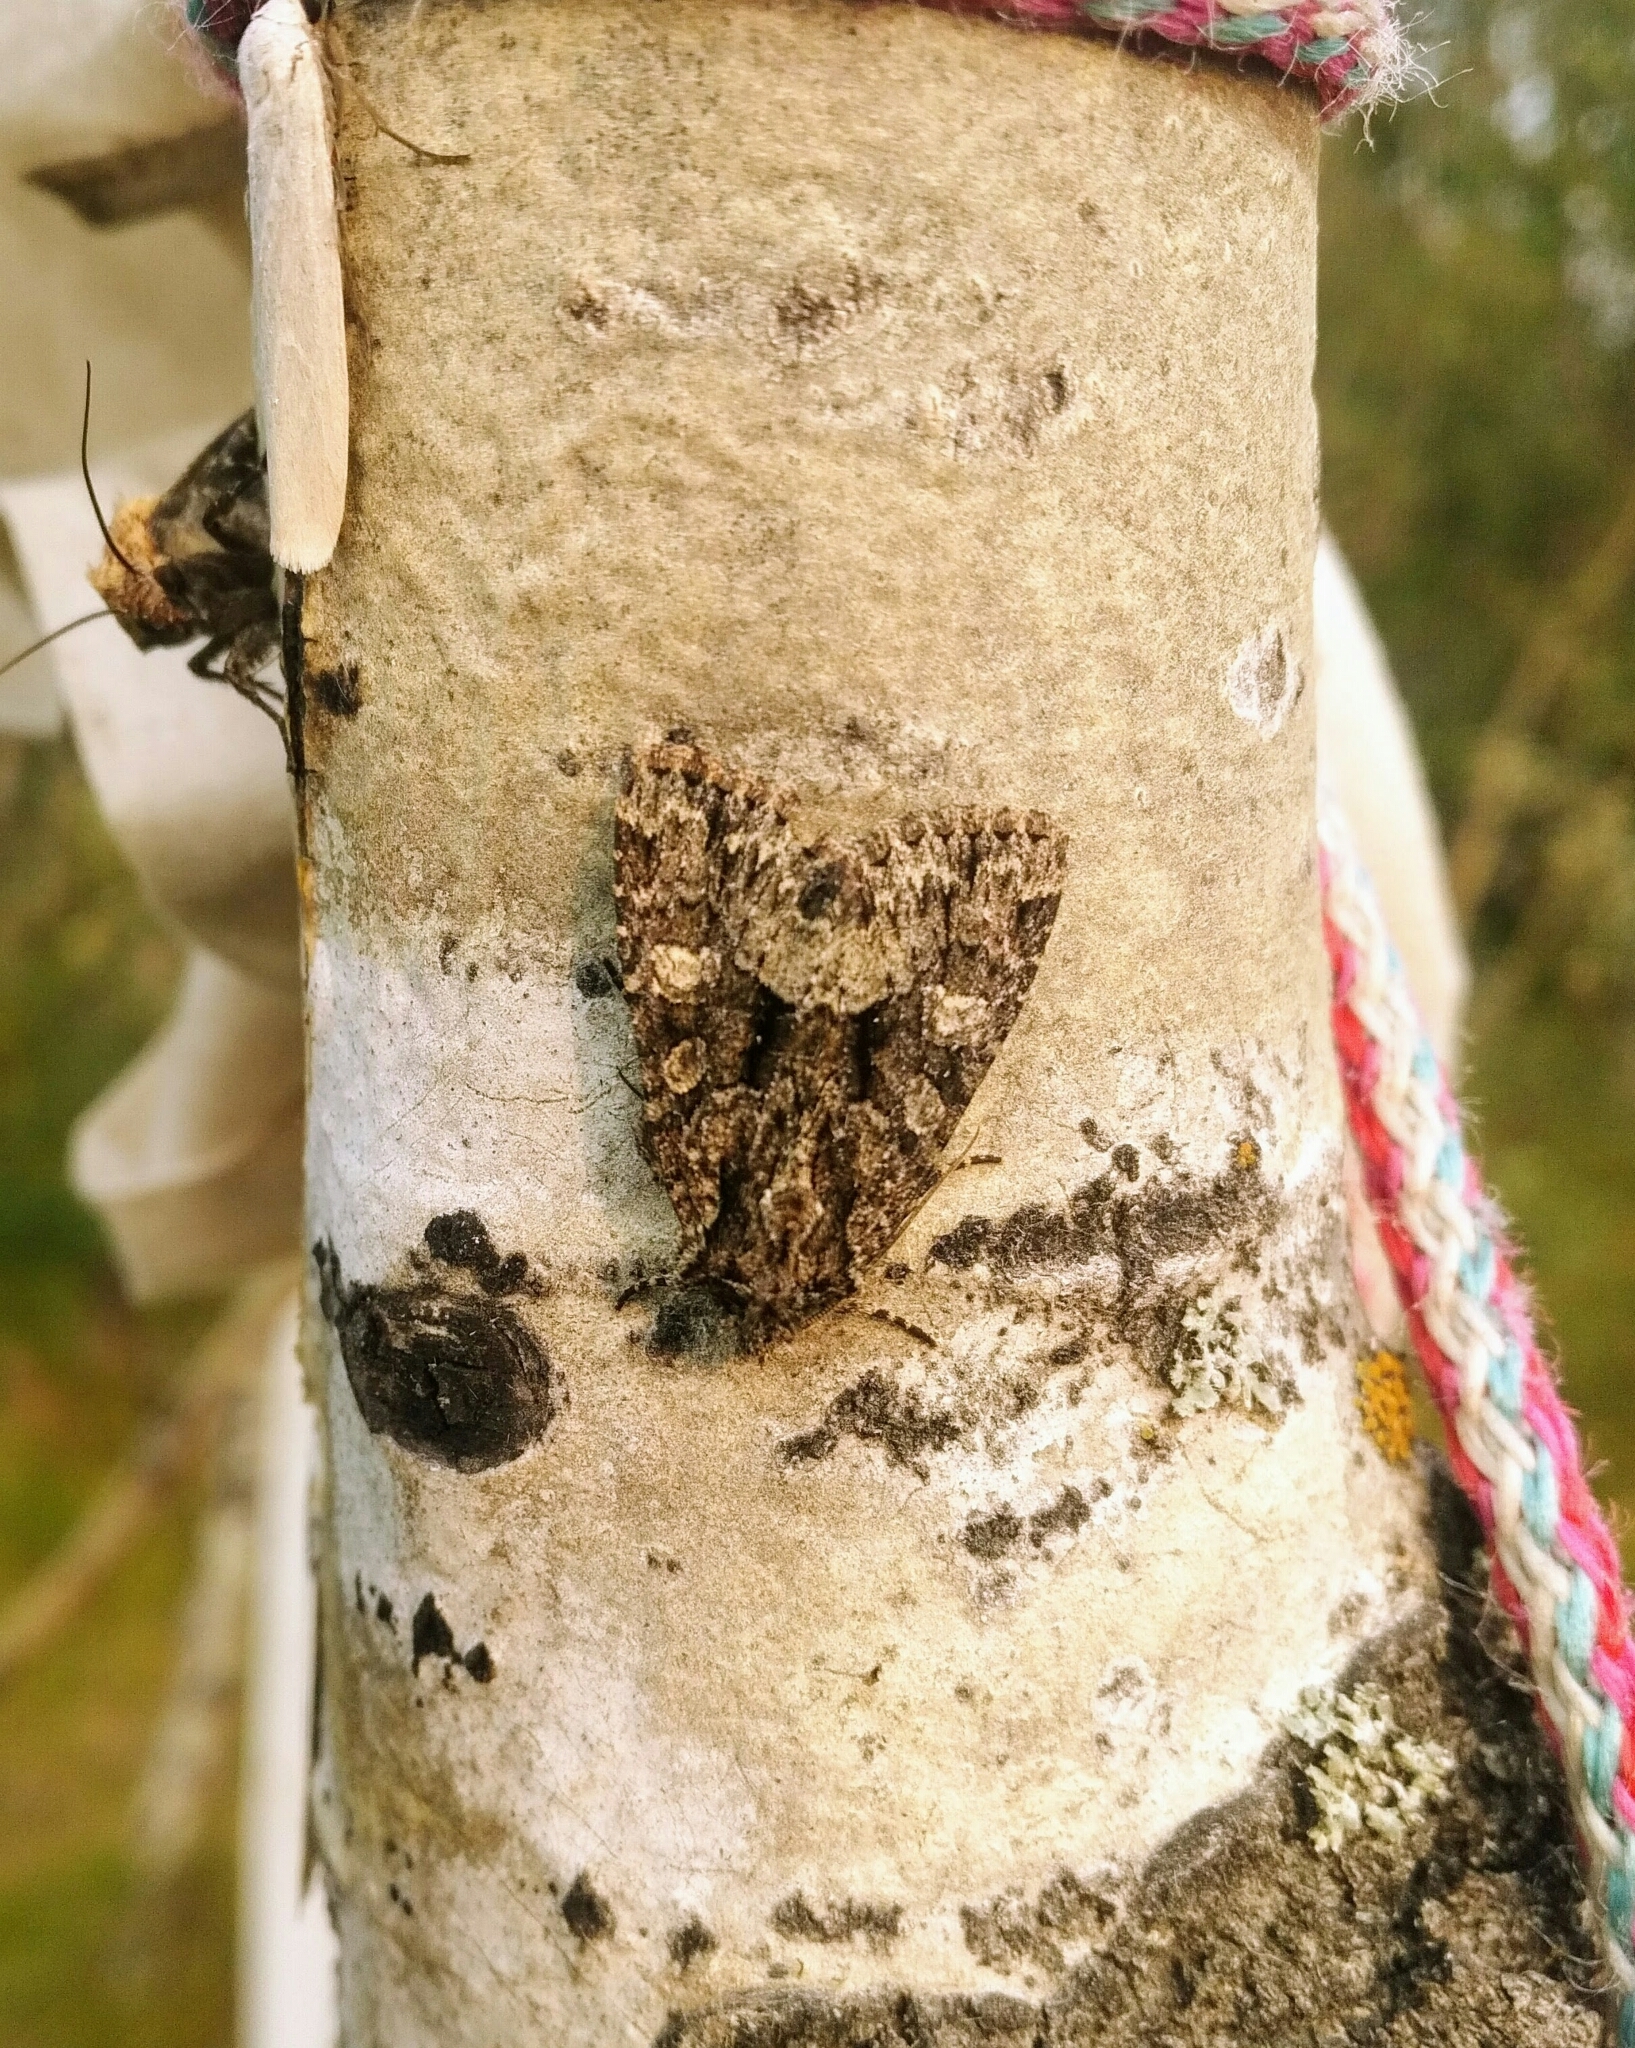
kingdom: Animalia
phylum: Arthropoda
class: Insecta
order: Lepidoptera
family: Noctuidae
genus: Platypolia
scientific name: Platypolia mactata
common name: Adorable brocade moth
